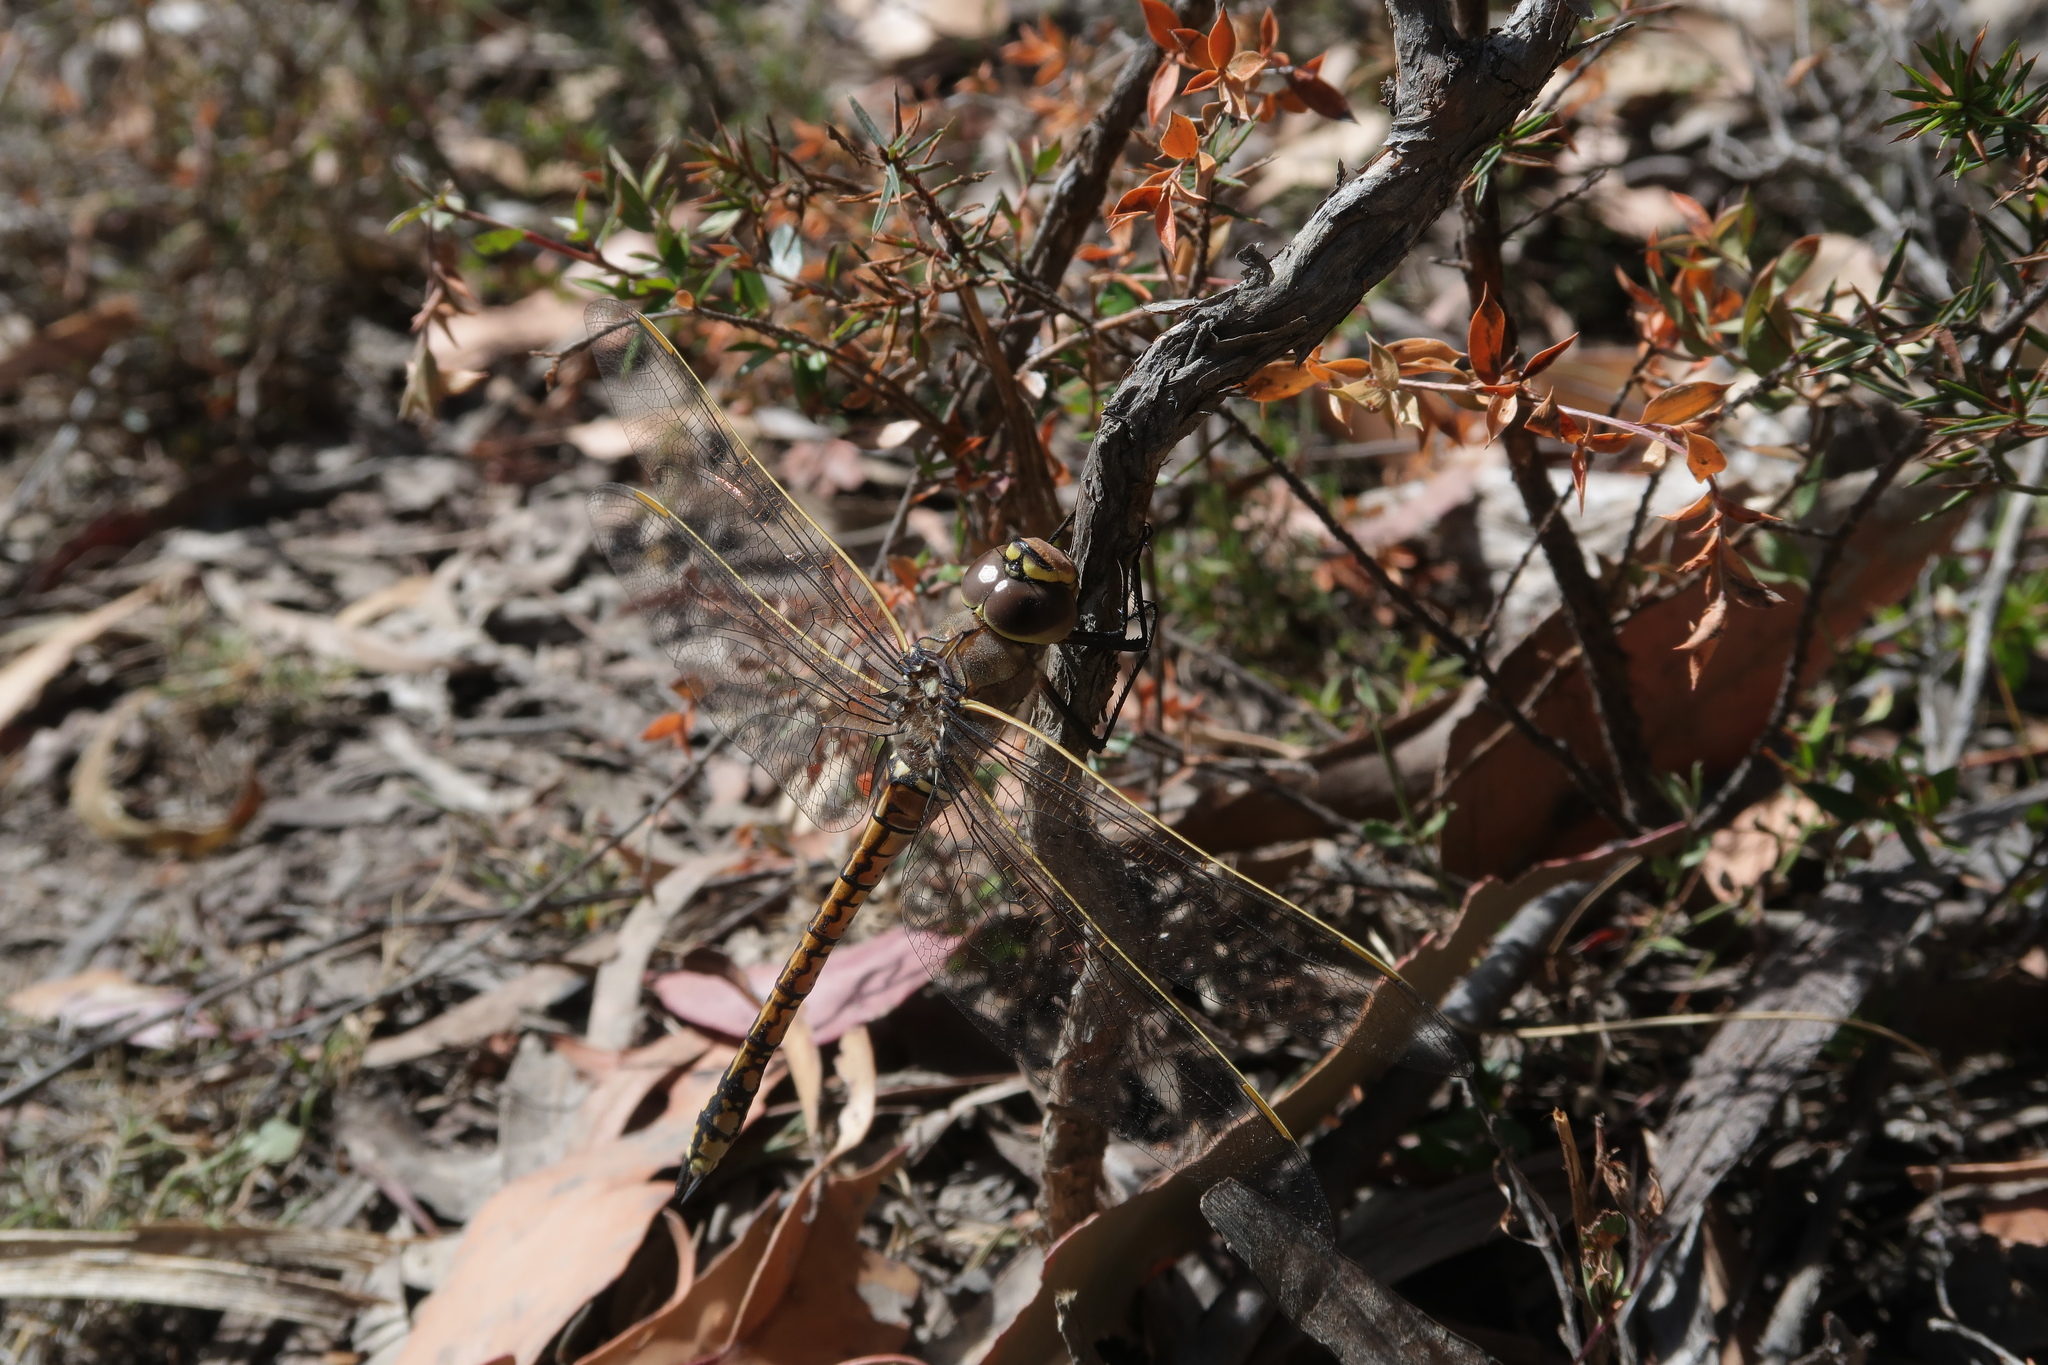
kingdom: Animalia
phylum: Arthropoda
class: Insecta
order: Odonata
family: Aeshnidae
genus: Anax
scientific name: Anax papuensis
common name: Australian emperor
